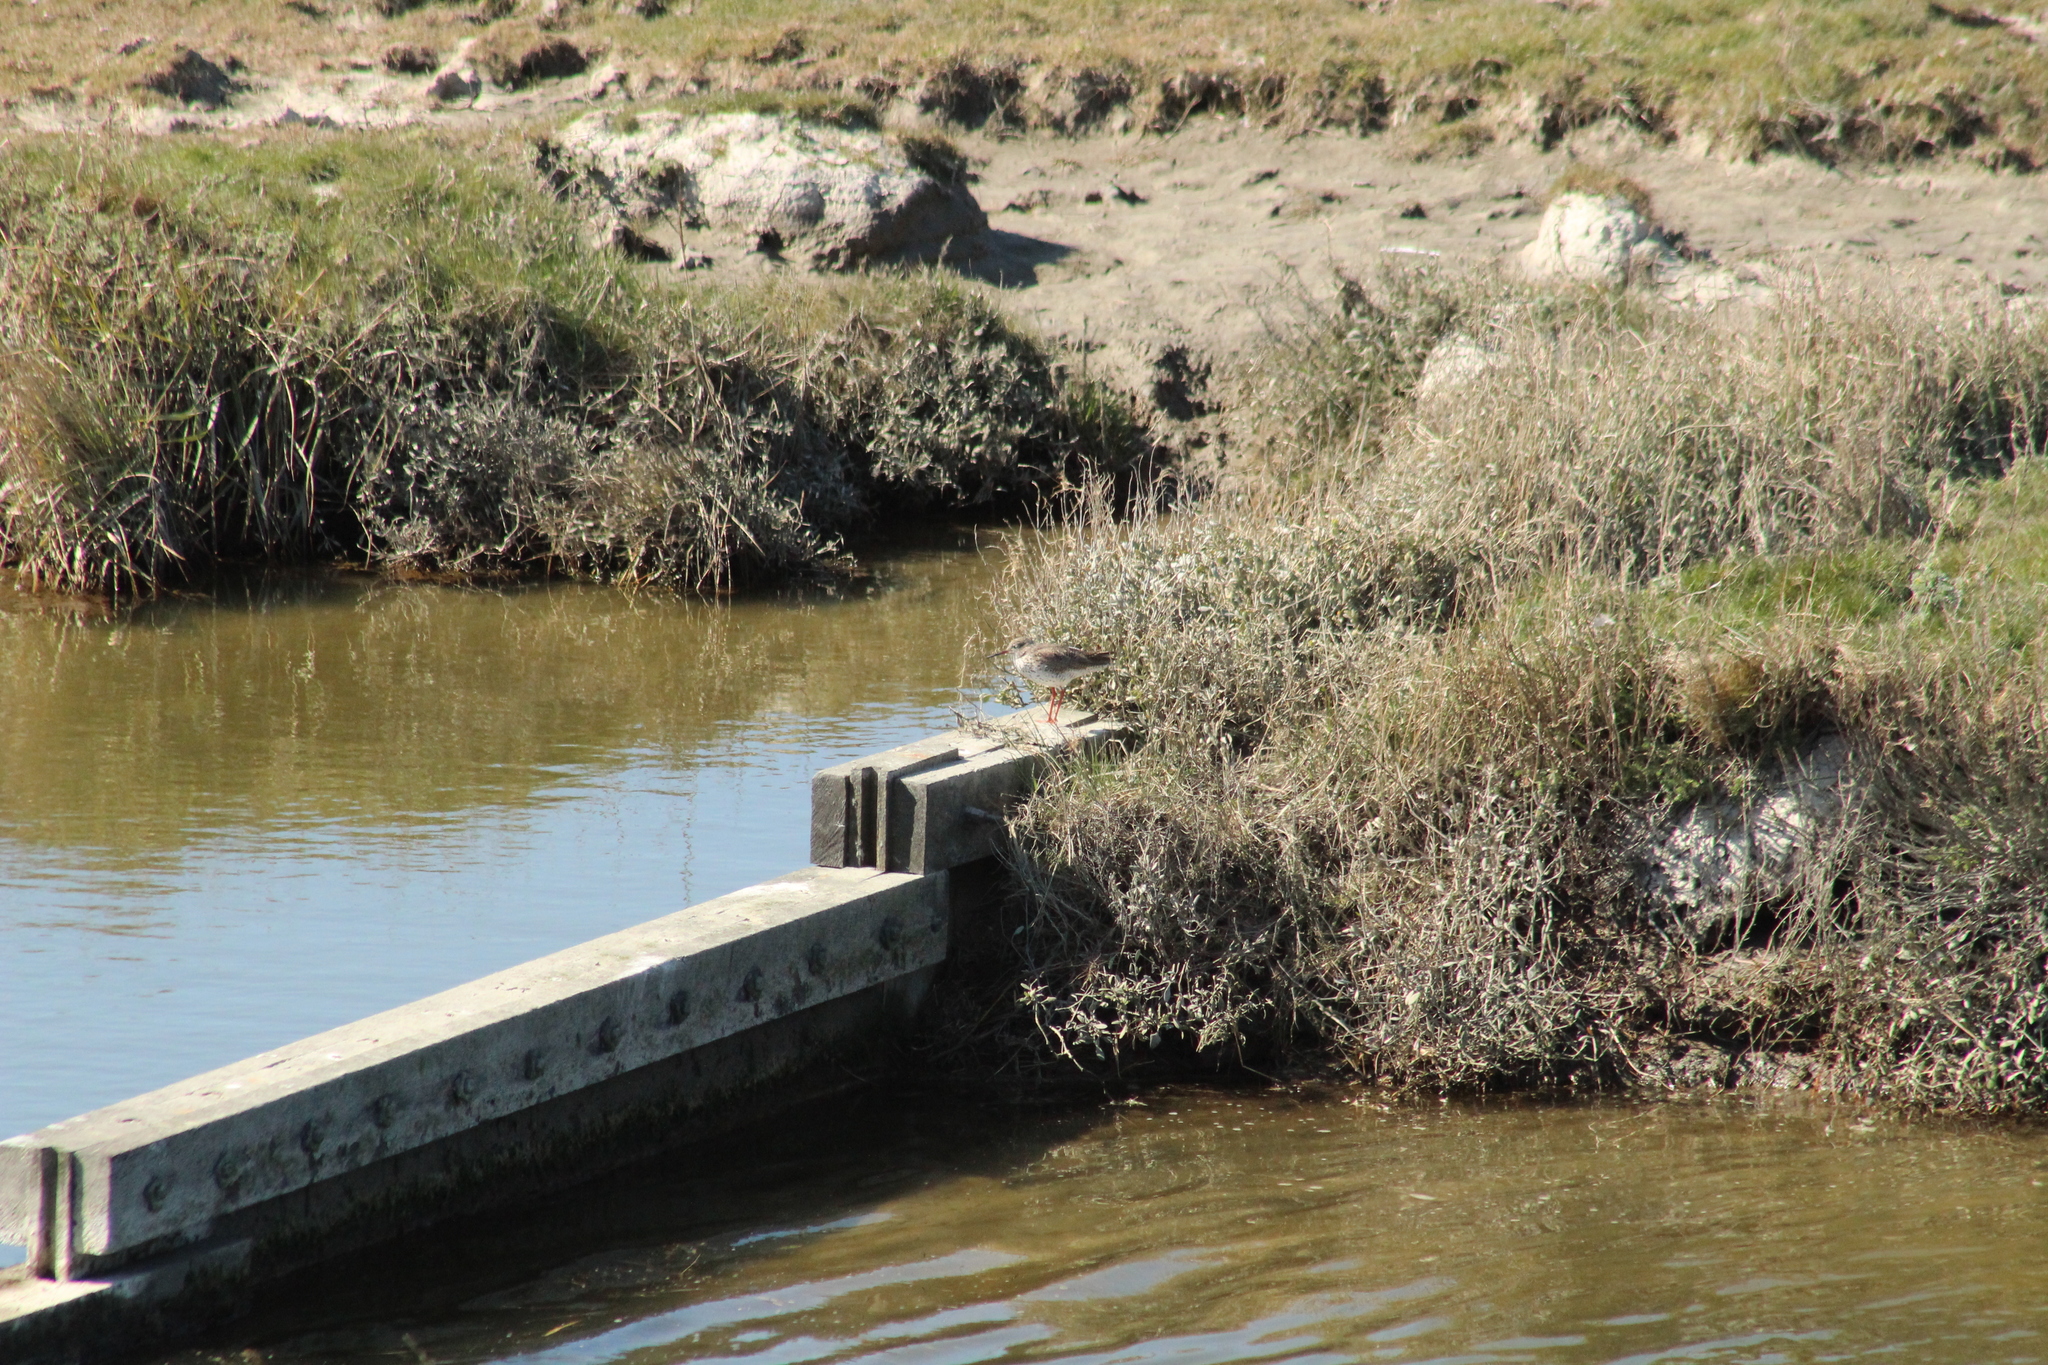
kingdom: Animalia
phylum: Chordata
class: Aves
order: Charadriiformes
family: Scolopacidae
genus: Tringa
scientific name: Tringa totanus
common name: Common redshank
